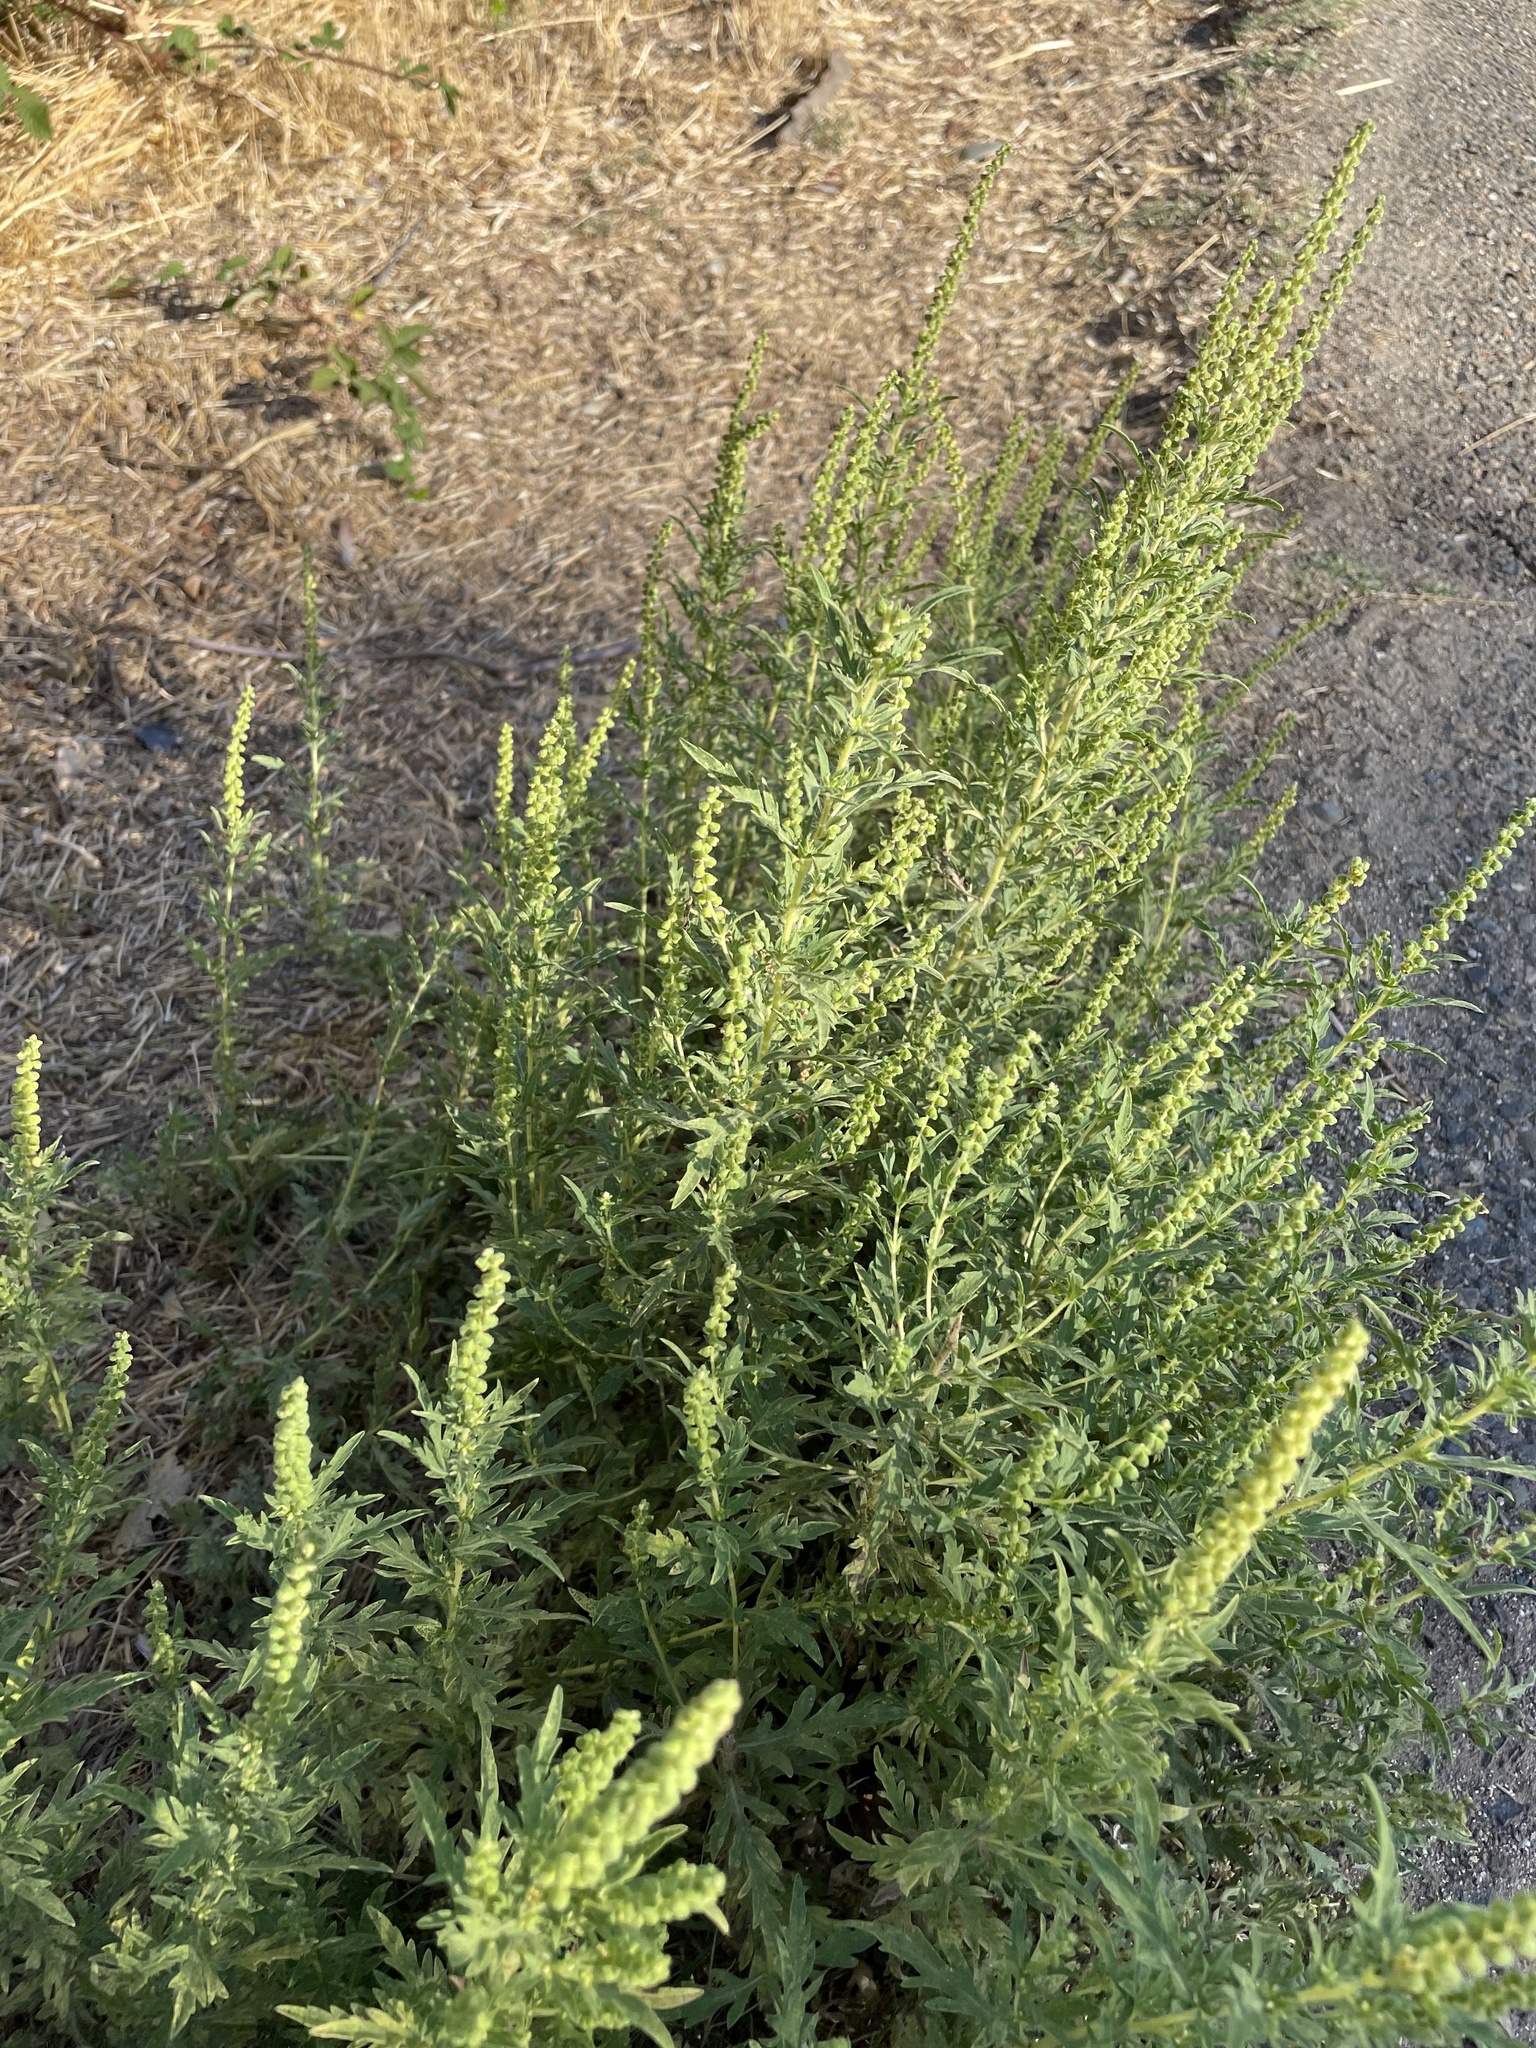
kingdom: Plantae
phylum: Tracheophyta
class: Magnoliopsida
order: Asterales
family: Asteraceae
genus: Ambrosia
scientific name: Ambrosia psilostachya
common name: Perennial ragweed
